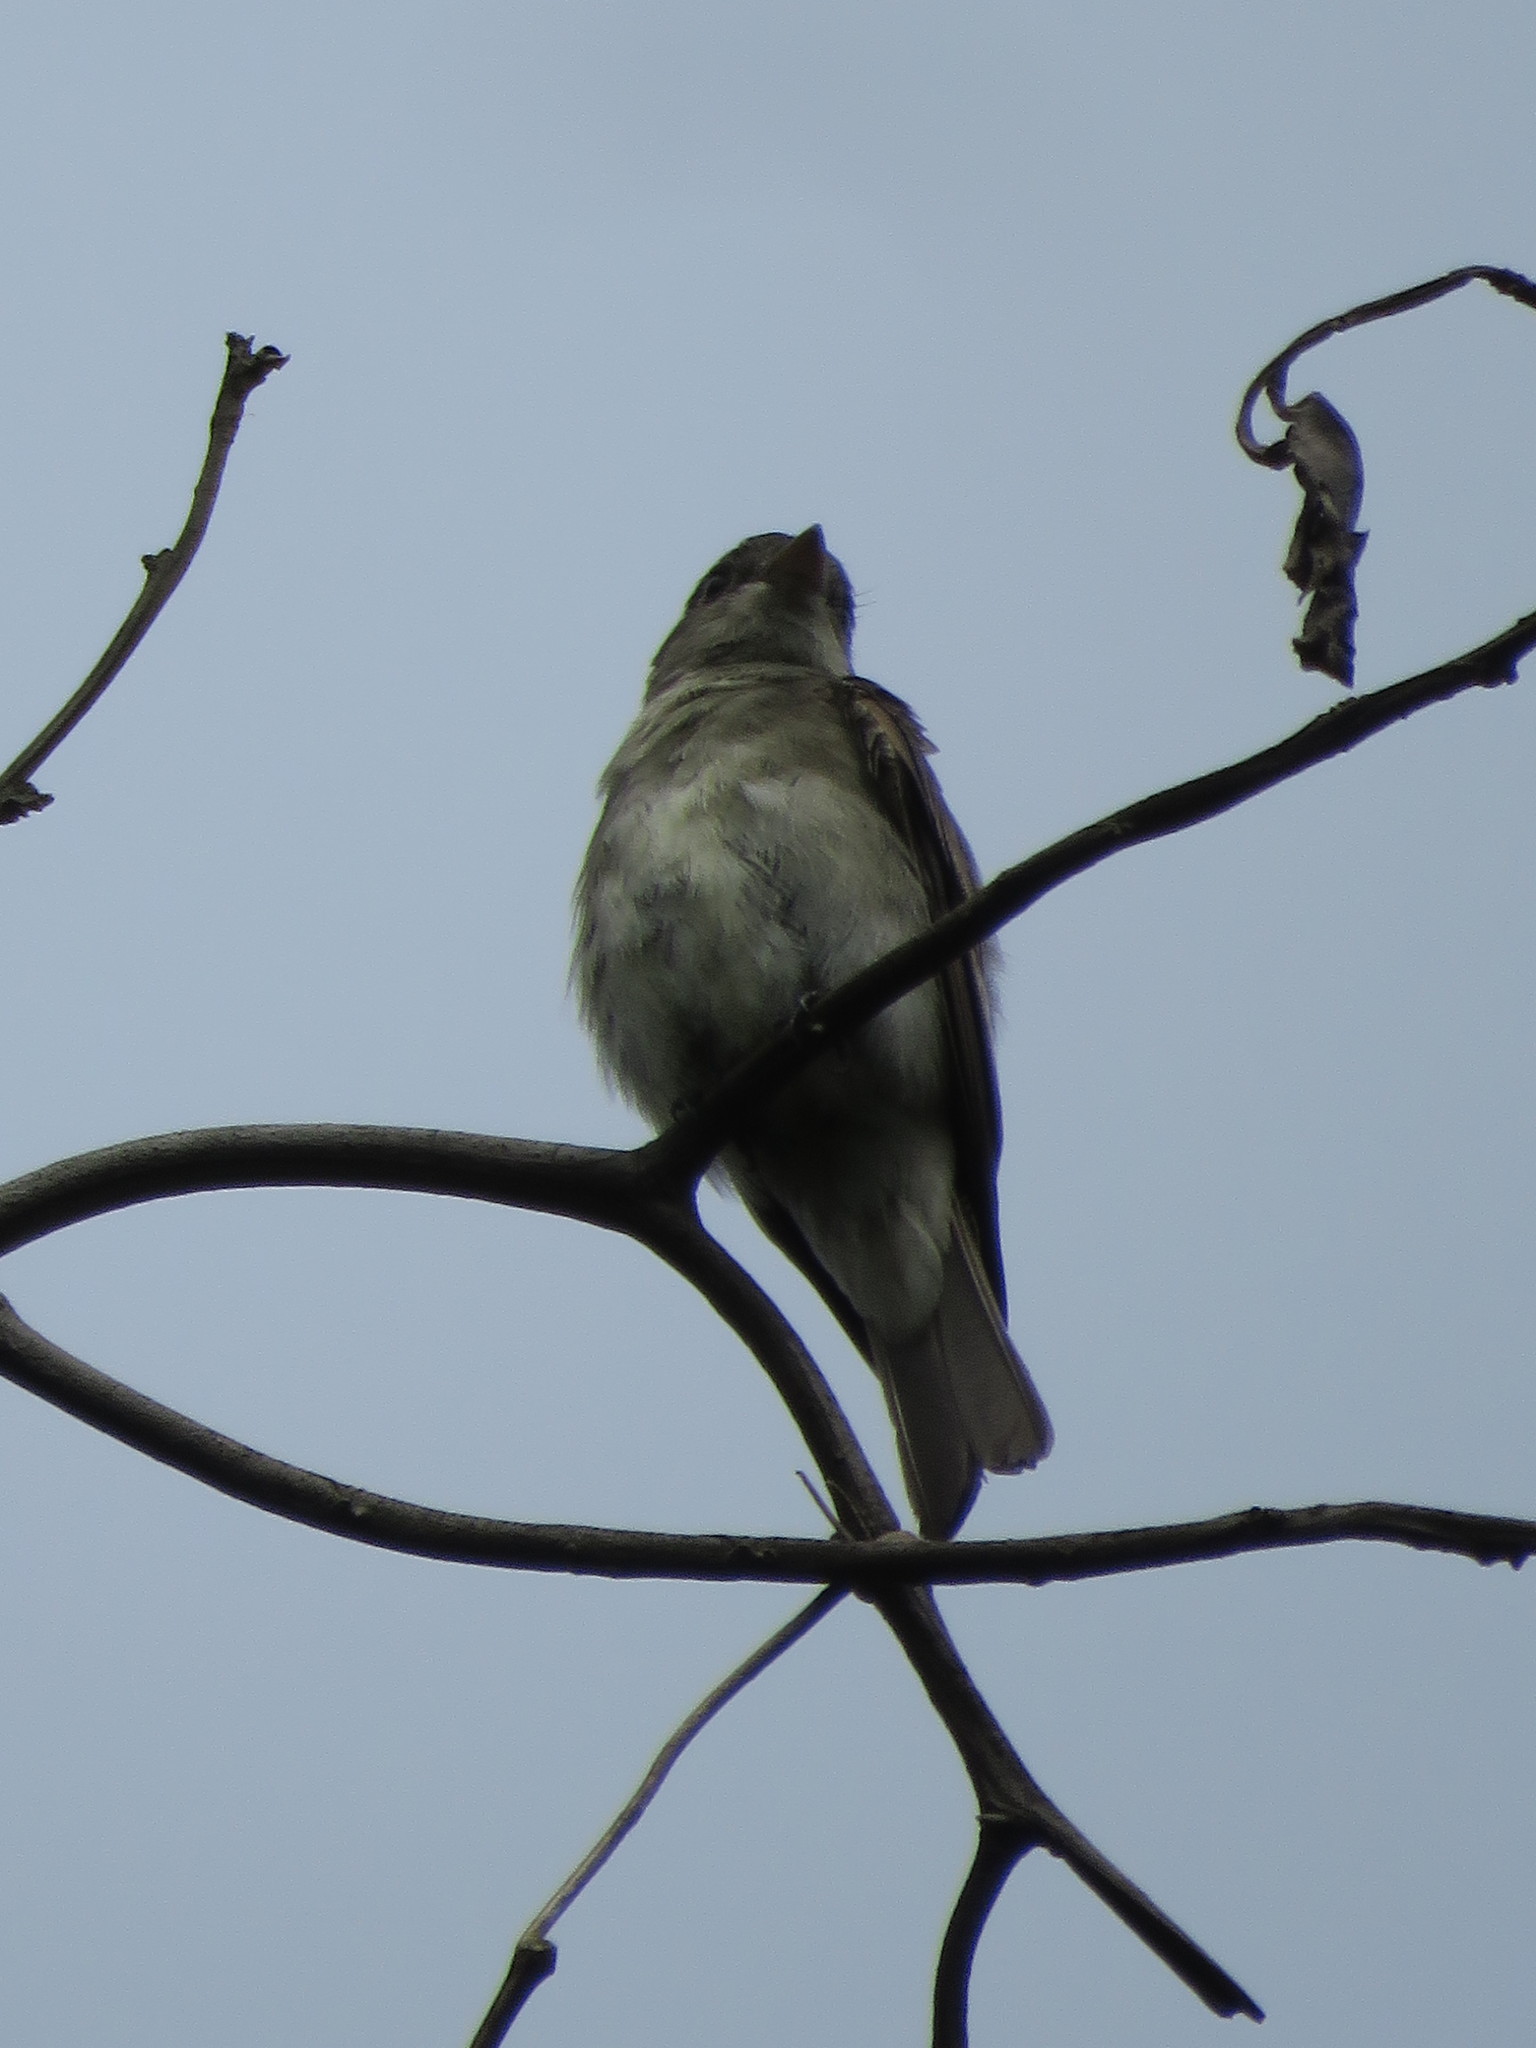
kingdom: Animalia
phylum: Chordata
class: Aves
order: Passeriformes
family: Tyrannidae
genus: Empidonomus
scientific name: Empidonomus aurantioatrocristatus
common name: Crowned slaty flycatcher
